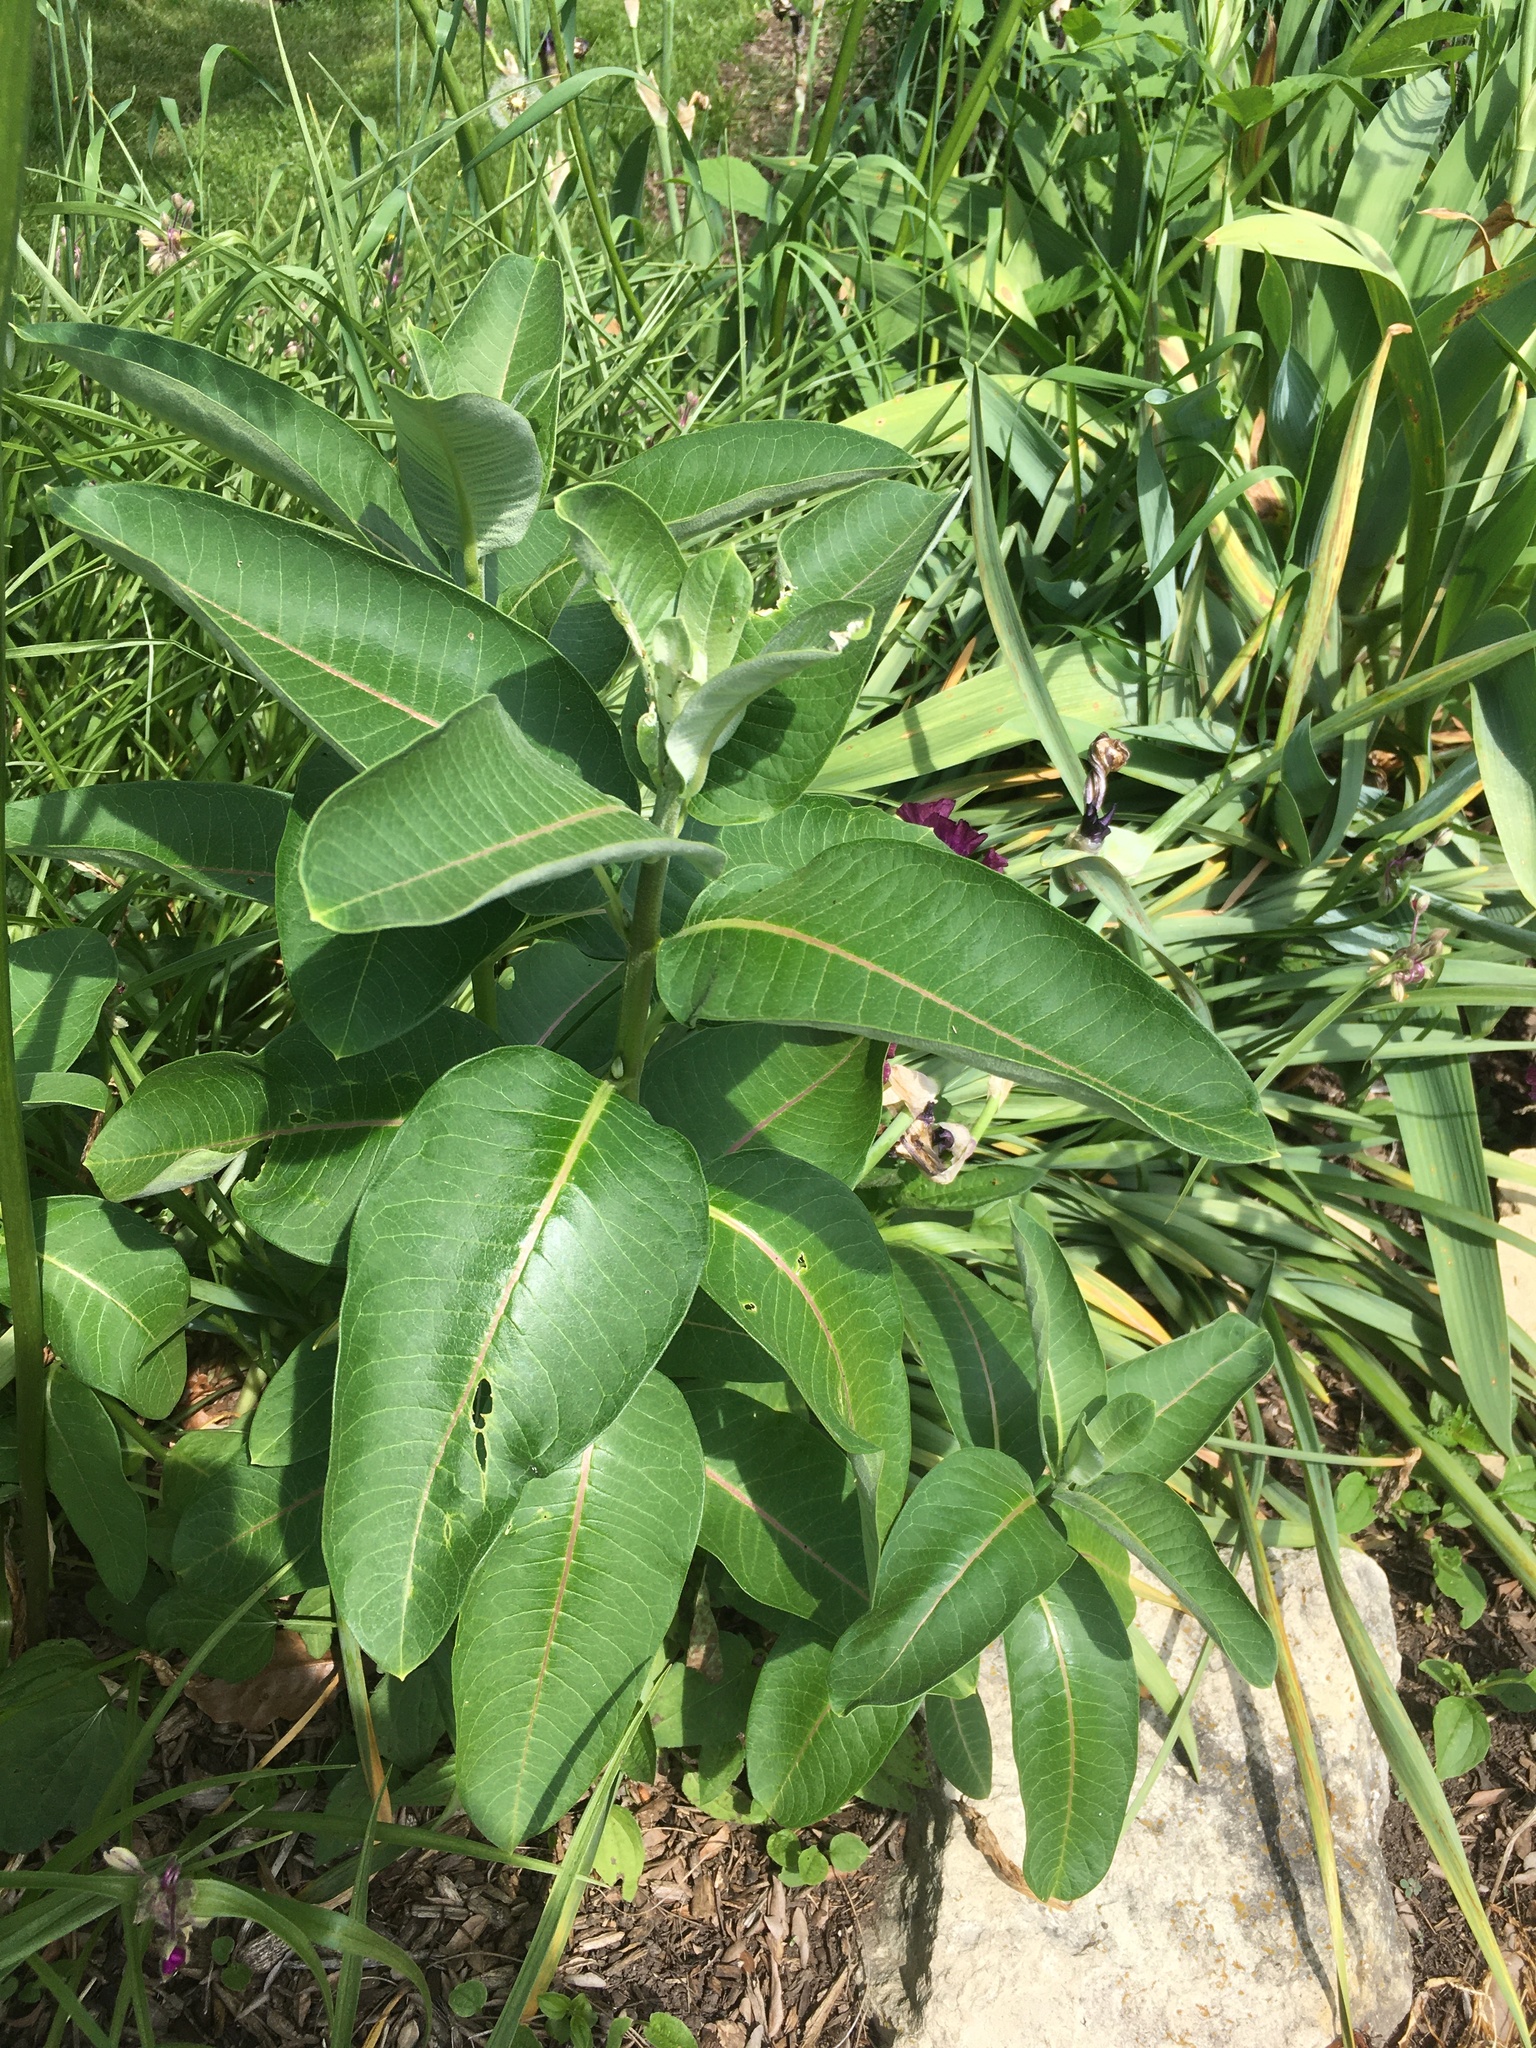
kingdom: Plantae
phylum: Tracheophyta
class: Magnoliopsida
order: Gentianales
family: Apocynaceae
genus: Asclepias
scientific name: Asclepias syriaca
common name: Common milkweed
